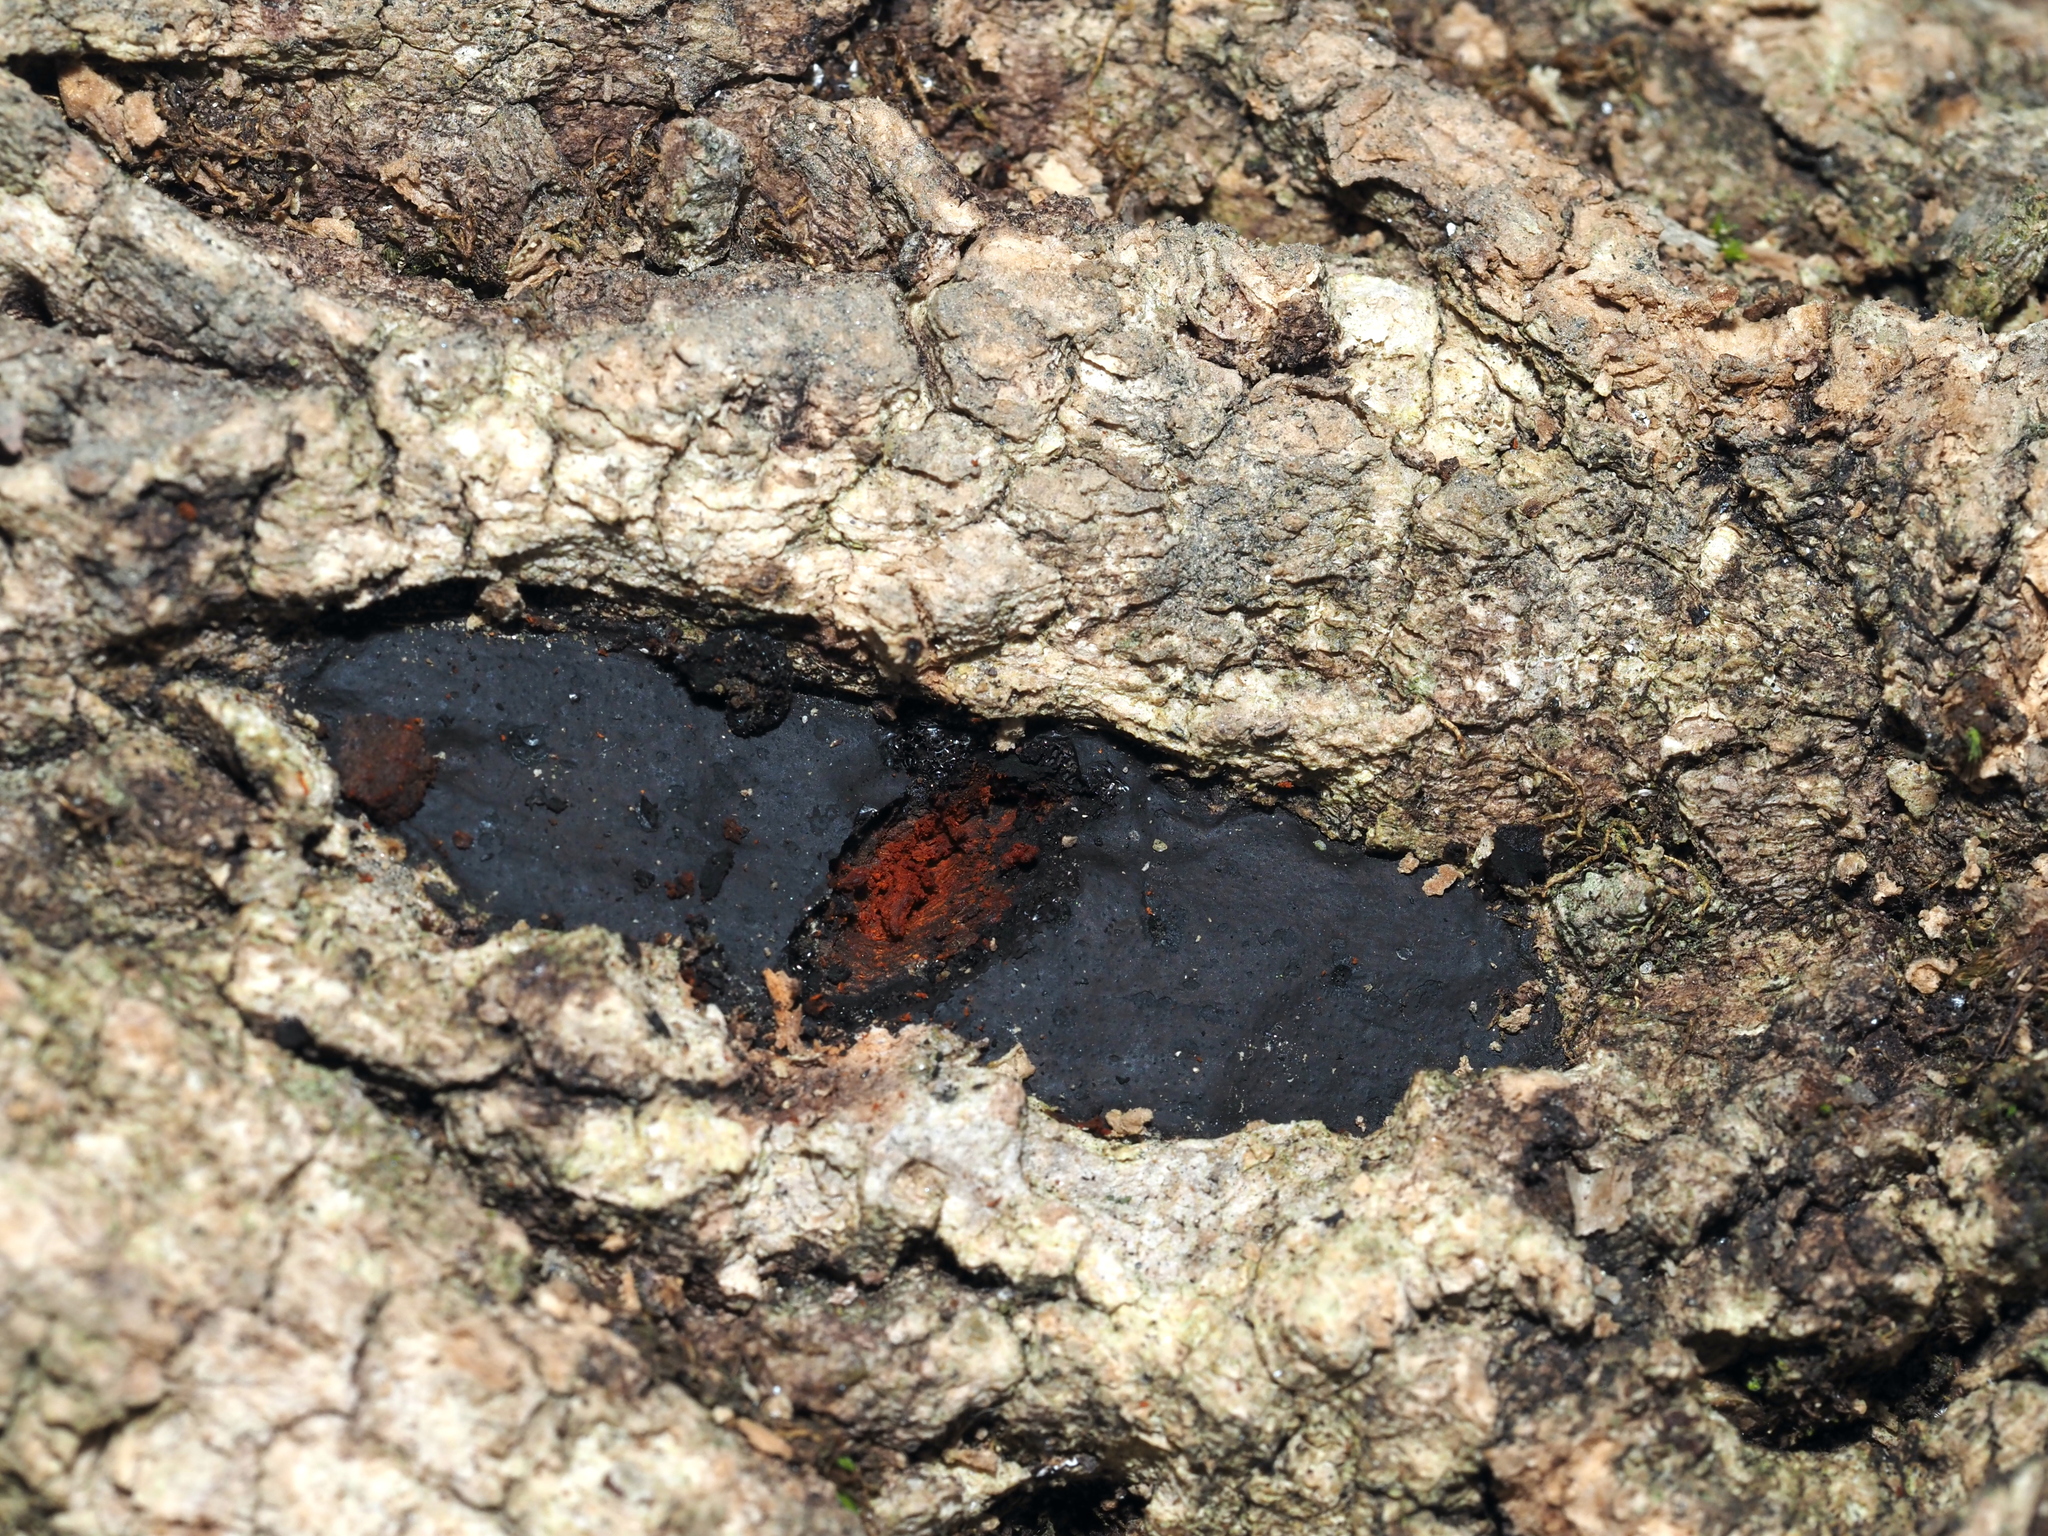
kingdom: Fungi
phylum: Ascomycota
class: Sordariomycetes
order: Xylariales
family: Graphostromataceae
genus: Camillea
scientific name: Camillea tinctor
